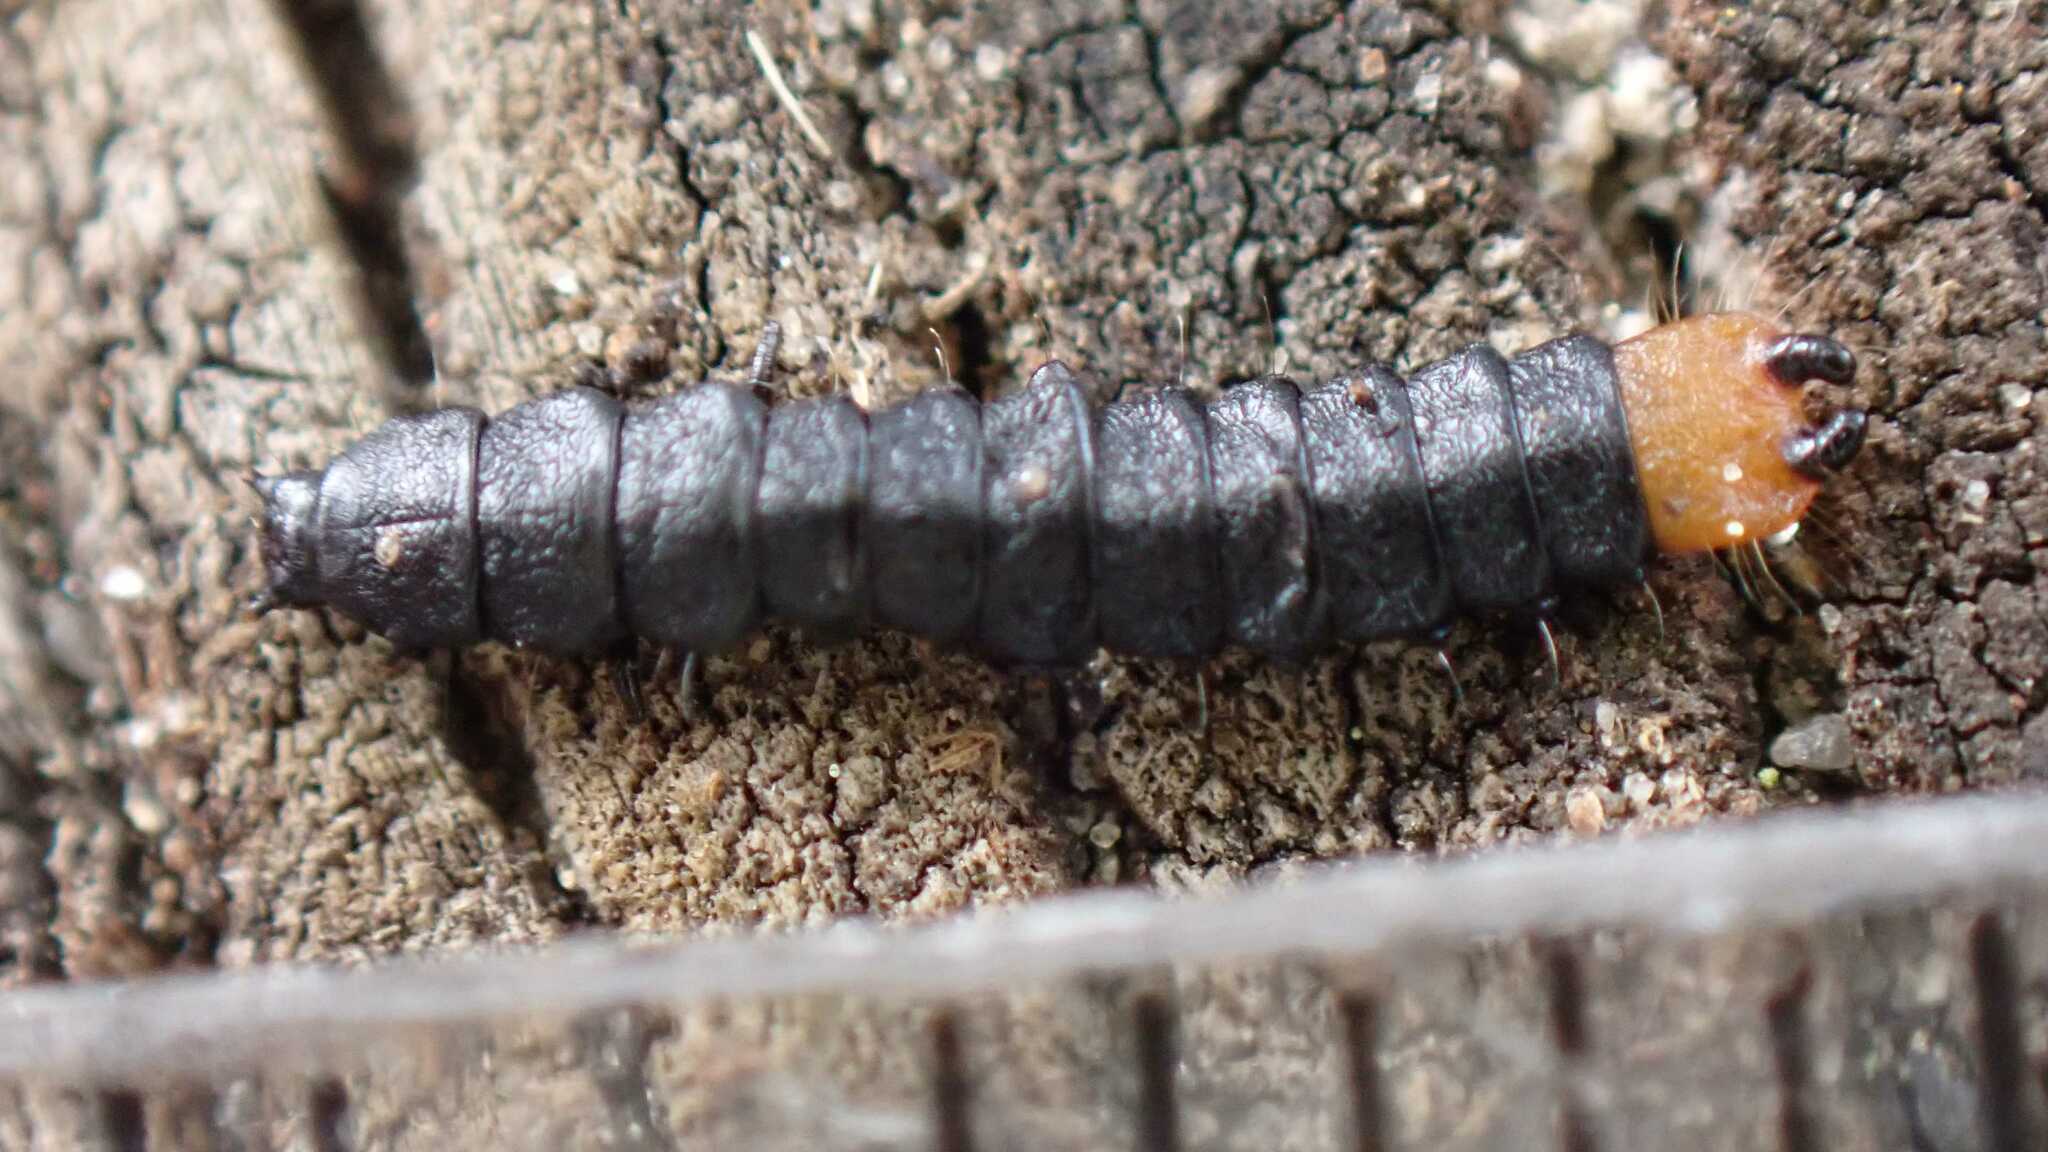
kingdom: Animalia
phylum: Arthropoda
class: Insecta
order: Coleoptera
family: Lycidae
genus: Lygistopterus
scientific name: Lygistopterus sanguineus
